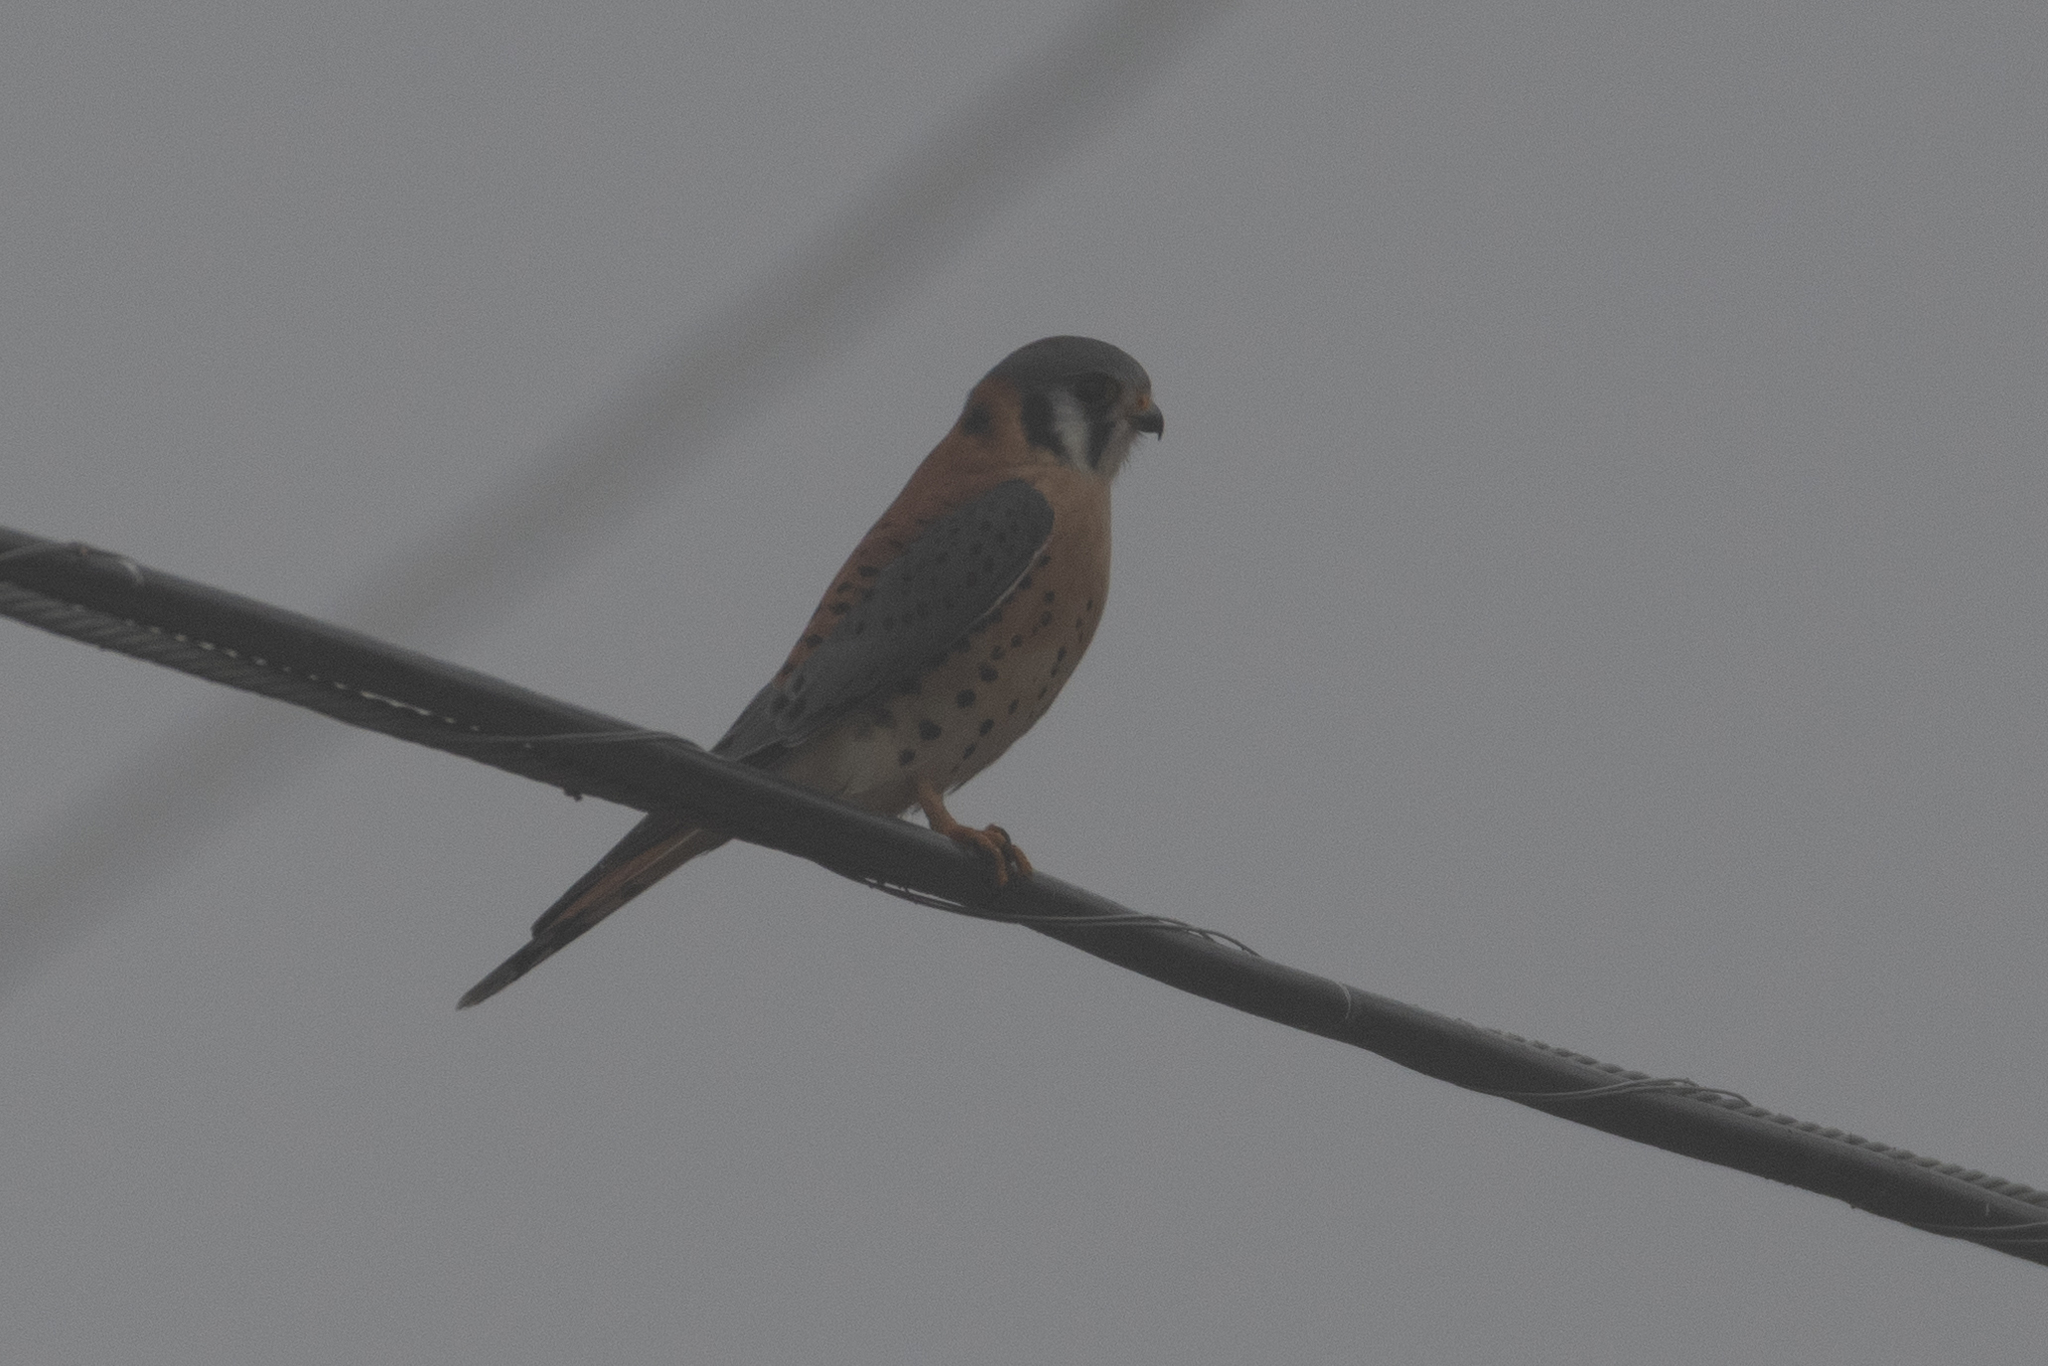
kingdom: Animalia
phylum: Chordata
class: Aves
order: Falconiformes
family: Falconidae
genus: Falco
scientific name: Falco sparverius
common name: American kestrel
